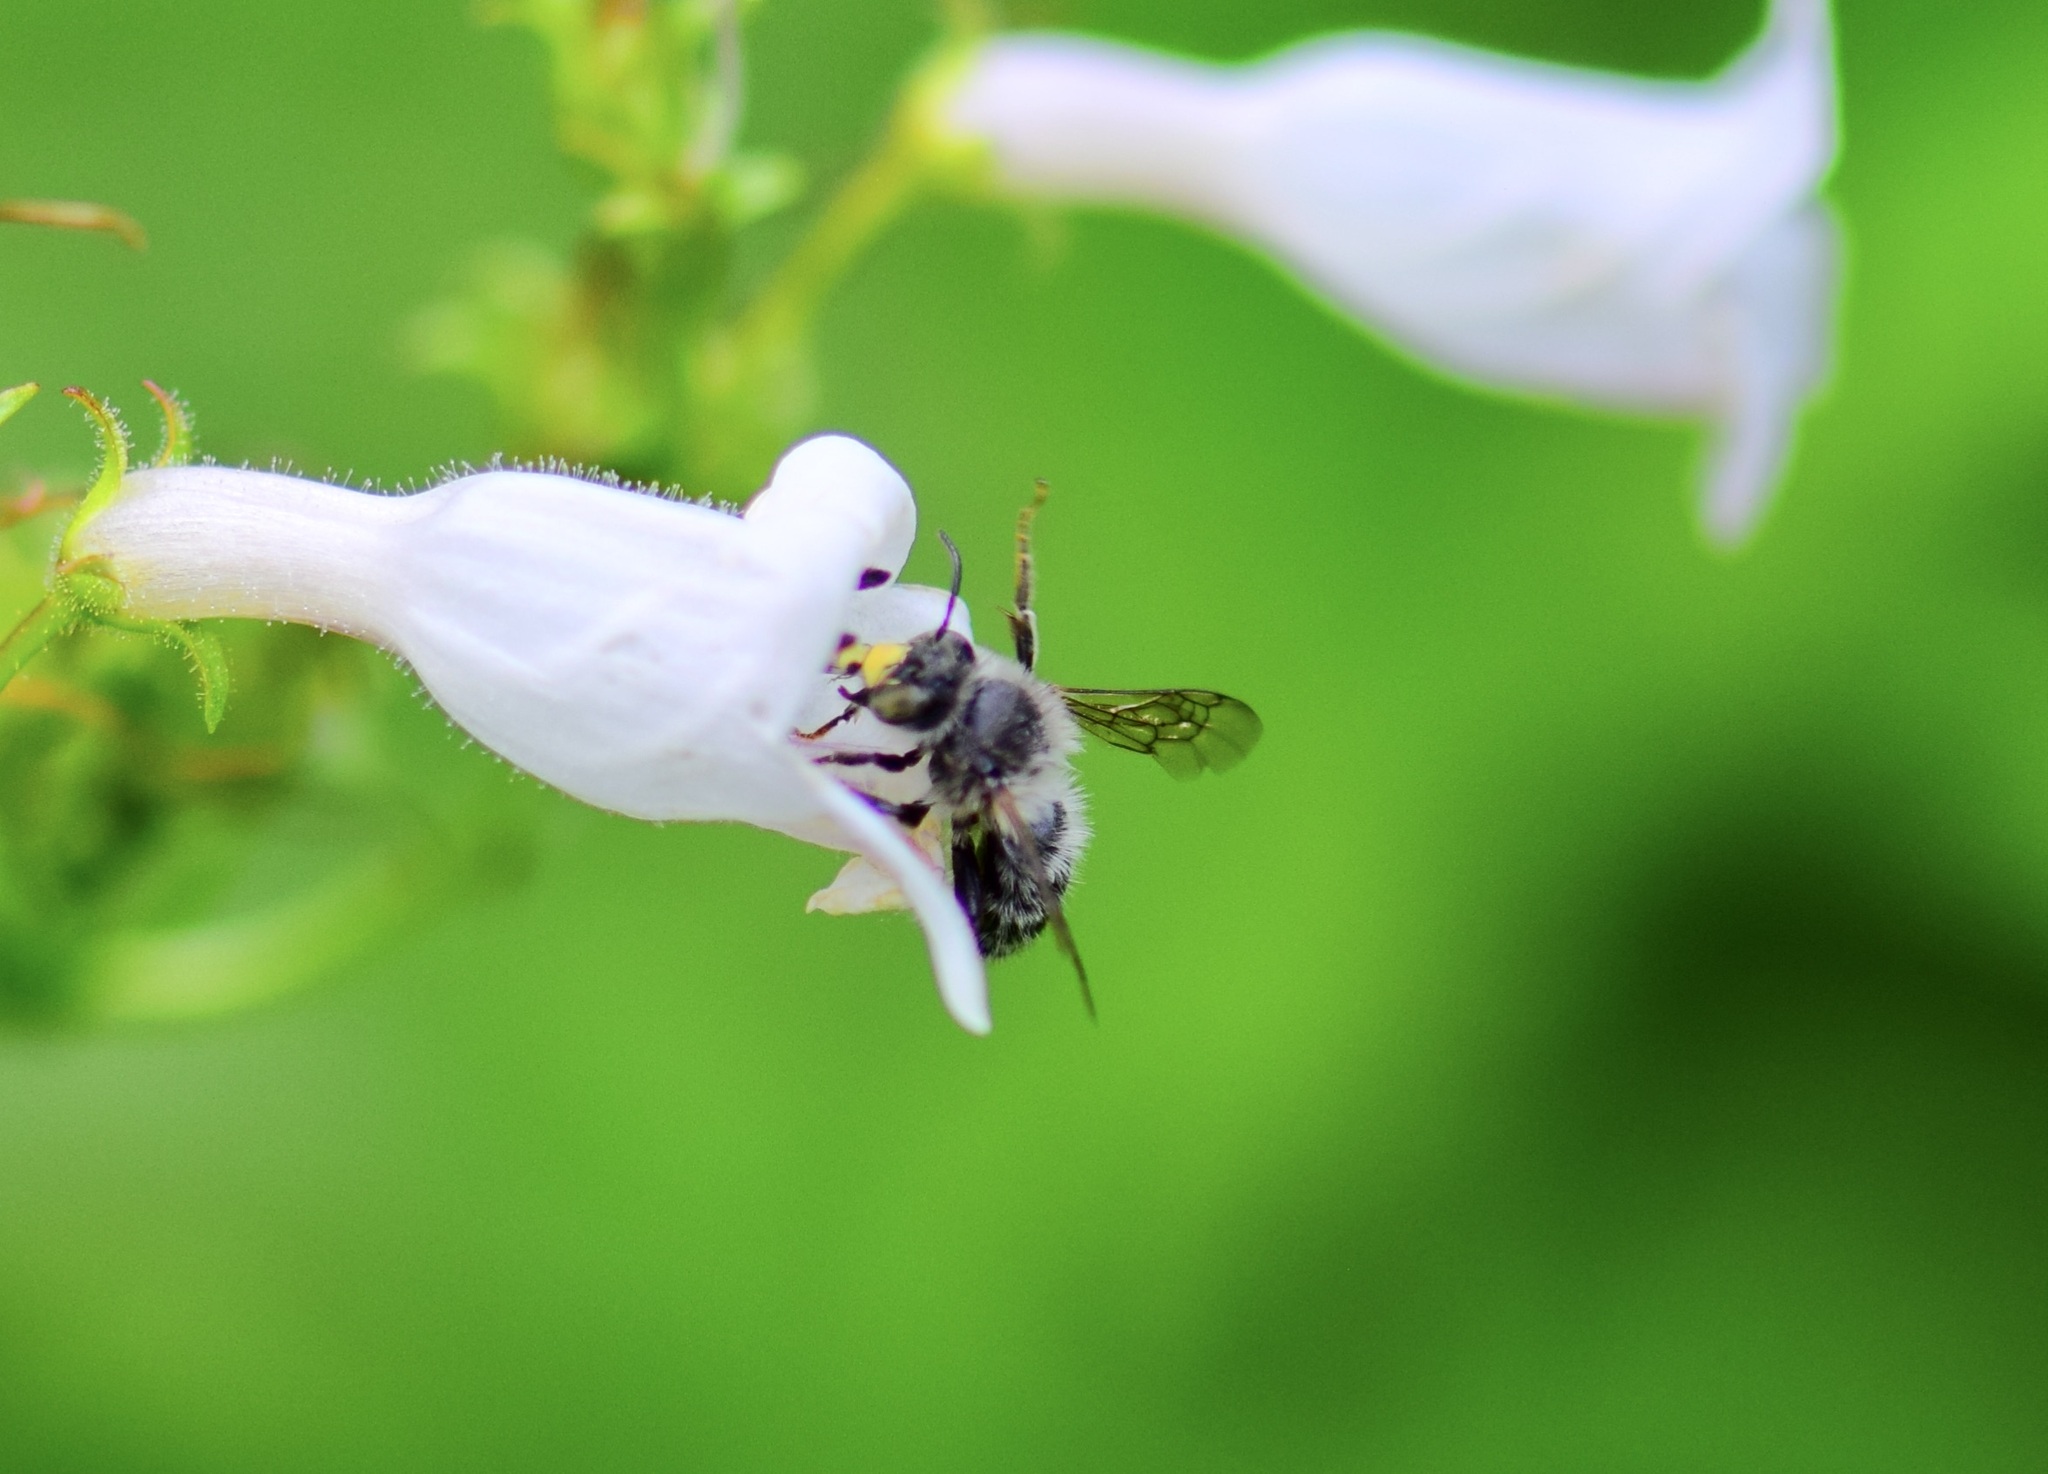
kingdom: Animalia
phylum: Arthropoda
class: Insecta
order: Hymenoptera
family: Apidae
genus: Anthophora
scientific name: Anthophora terminalis
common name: Orange-tipped wood-digger bee
